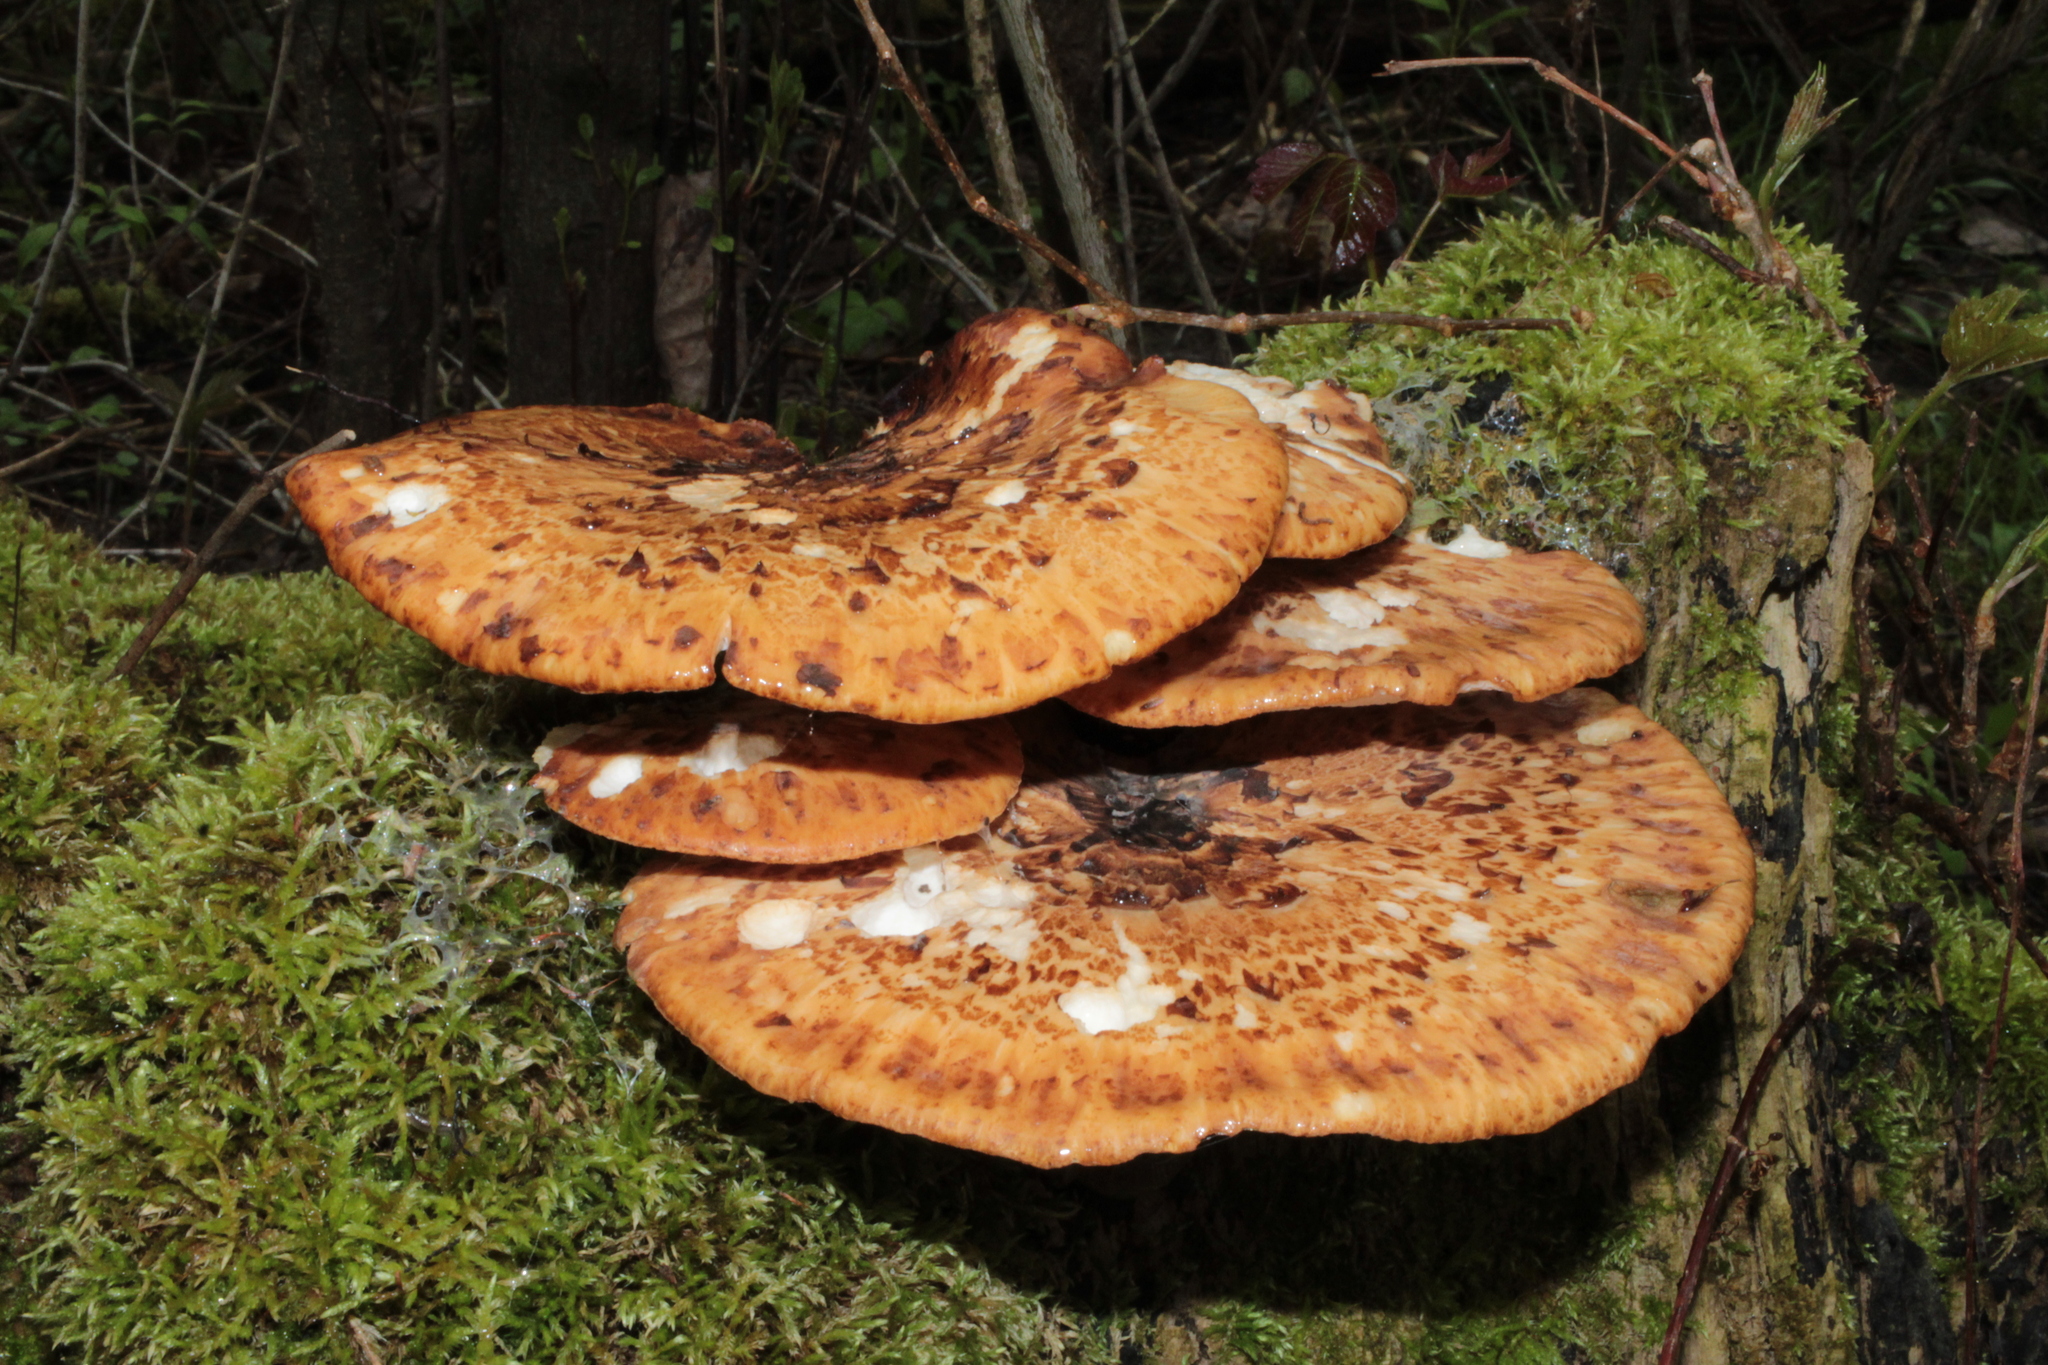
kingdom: Fungi
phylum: Basidiomycota
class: Agaricomycetes
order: Polyporales
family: Polyporaceae
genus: Cerioporus
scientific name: Cerioporus squamosus
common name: Dryad's saddle
